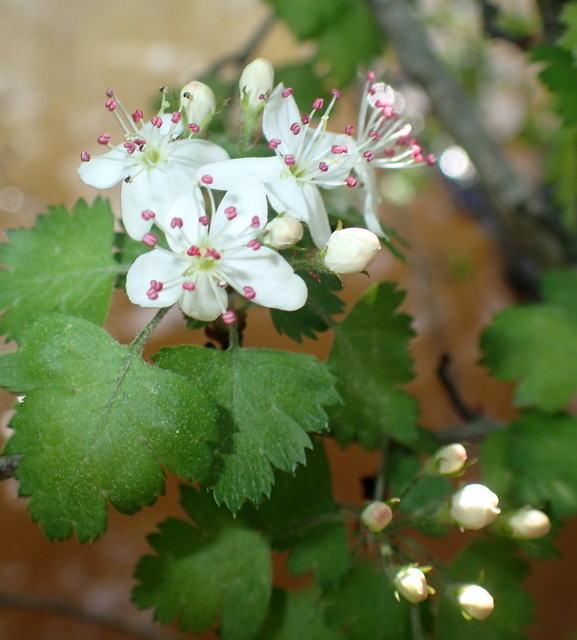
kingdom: Plantae
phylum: Tracheophyta
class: Magnoliopsida
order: Rosales
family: Rosaceae
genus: Crataegus
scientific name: Crataegus marshallii
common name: Parsley-hawthorn
